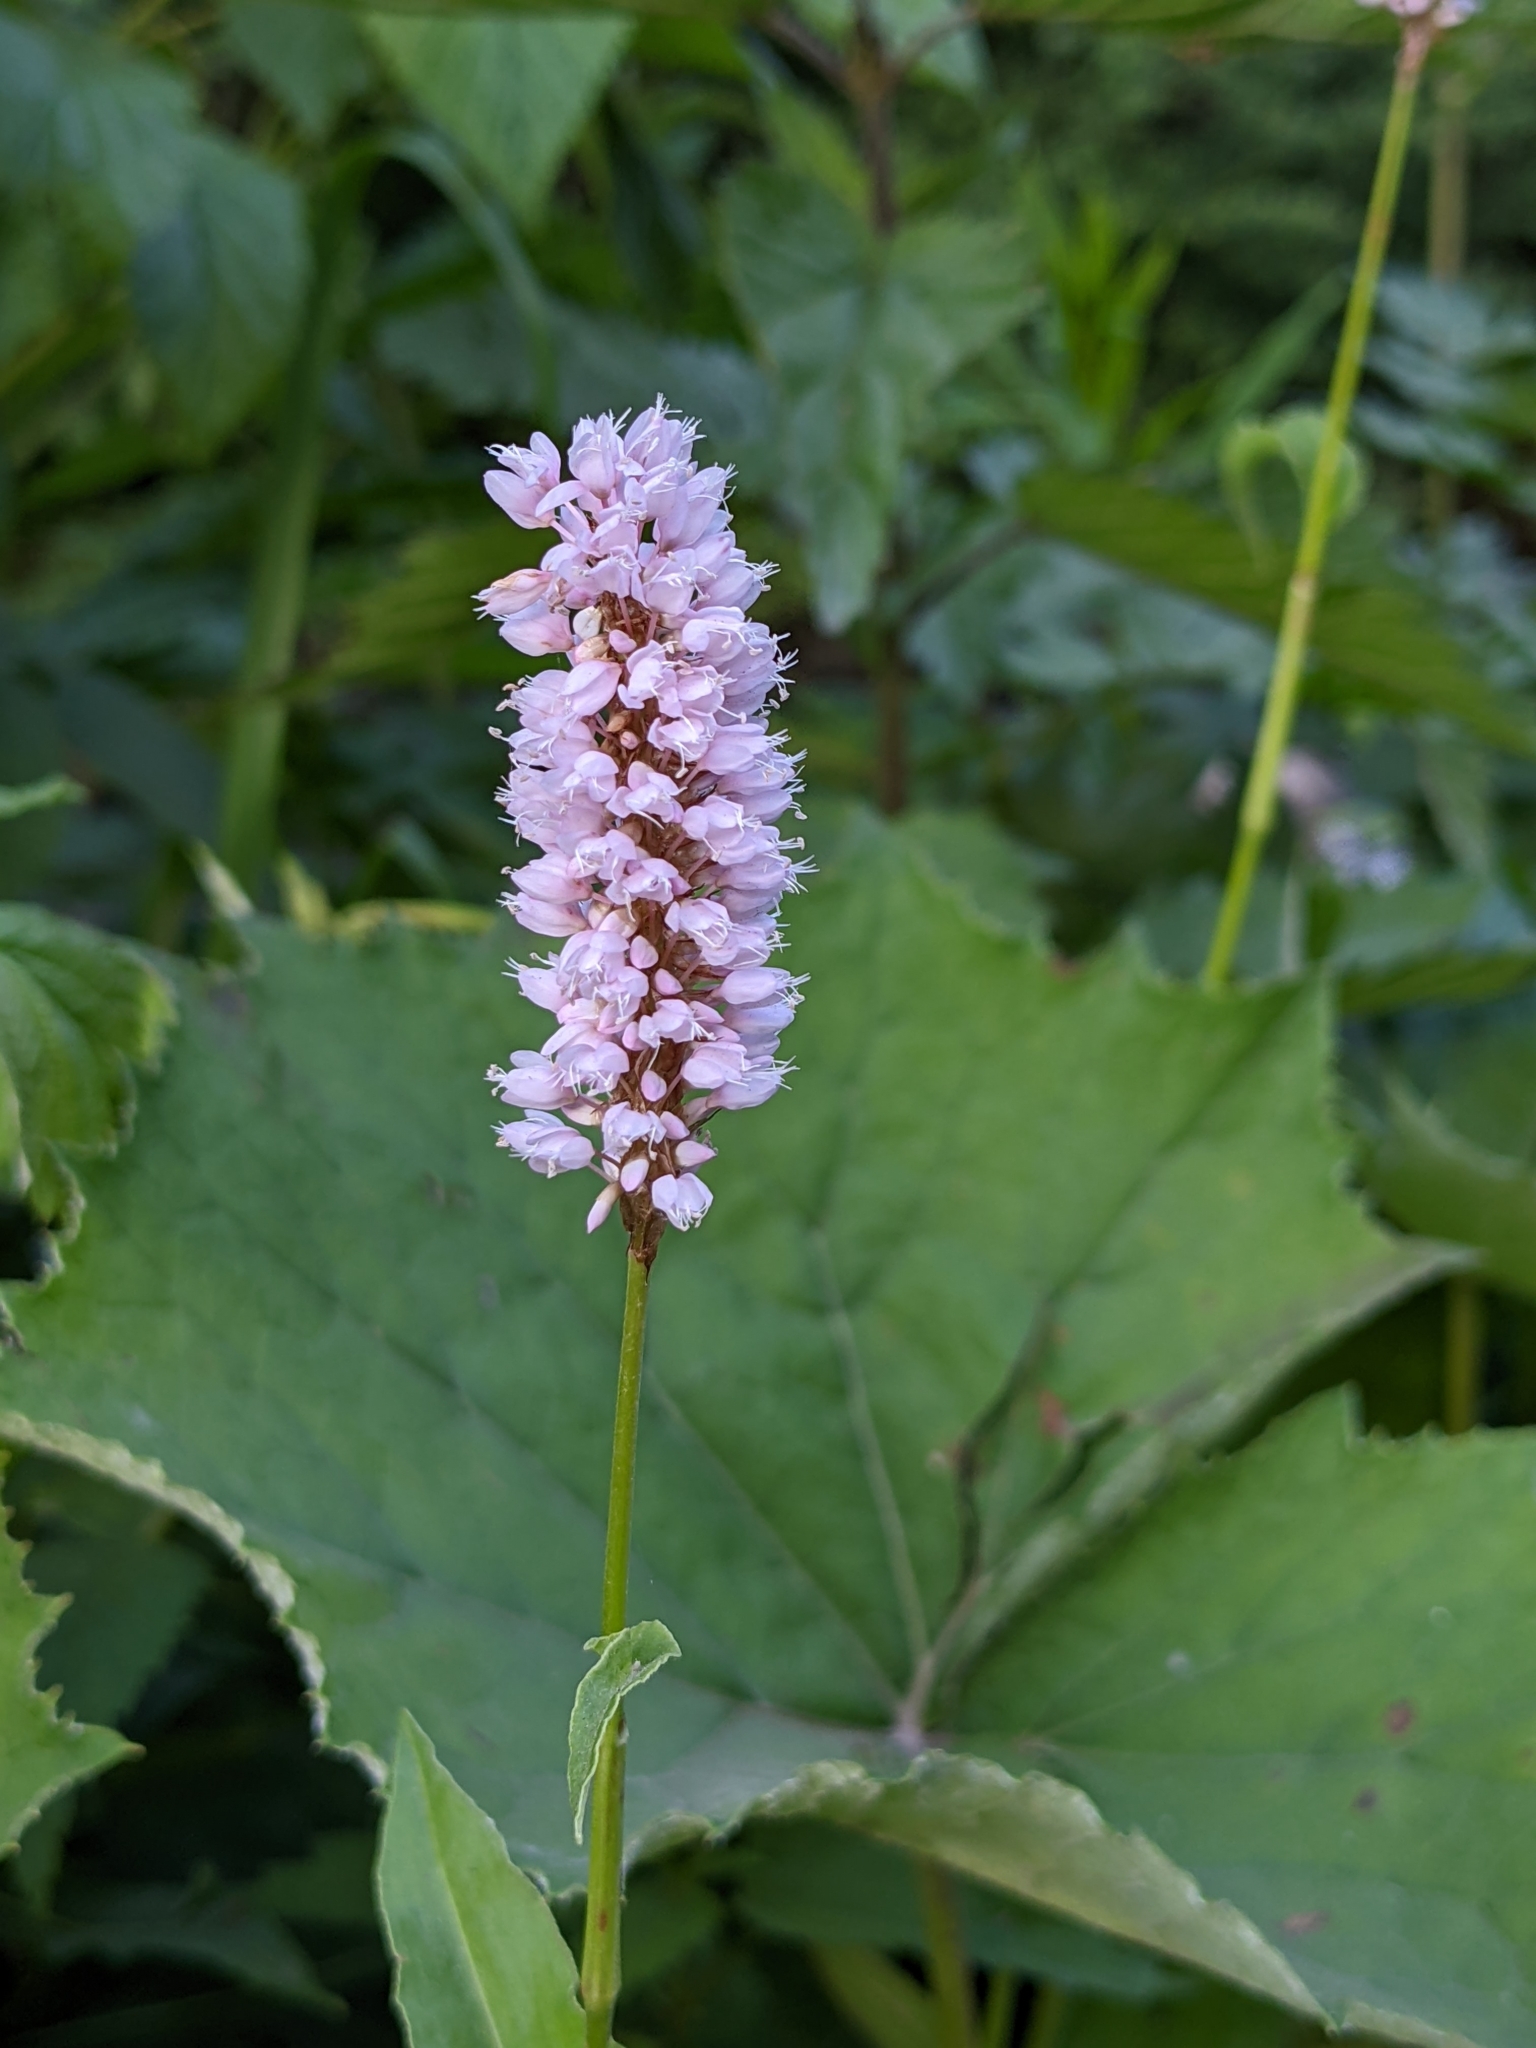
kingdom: Plantae
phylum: Tracheophyta
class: Magnoliopsida
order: Caryophyllales
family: Polygonaceae
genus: Bistorta
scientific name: Bistorta officinalis
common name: Common bistort
